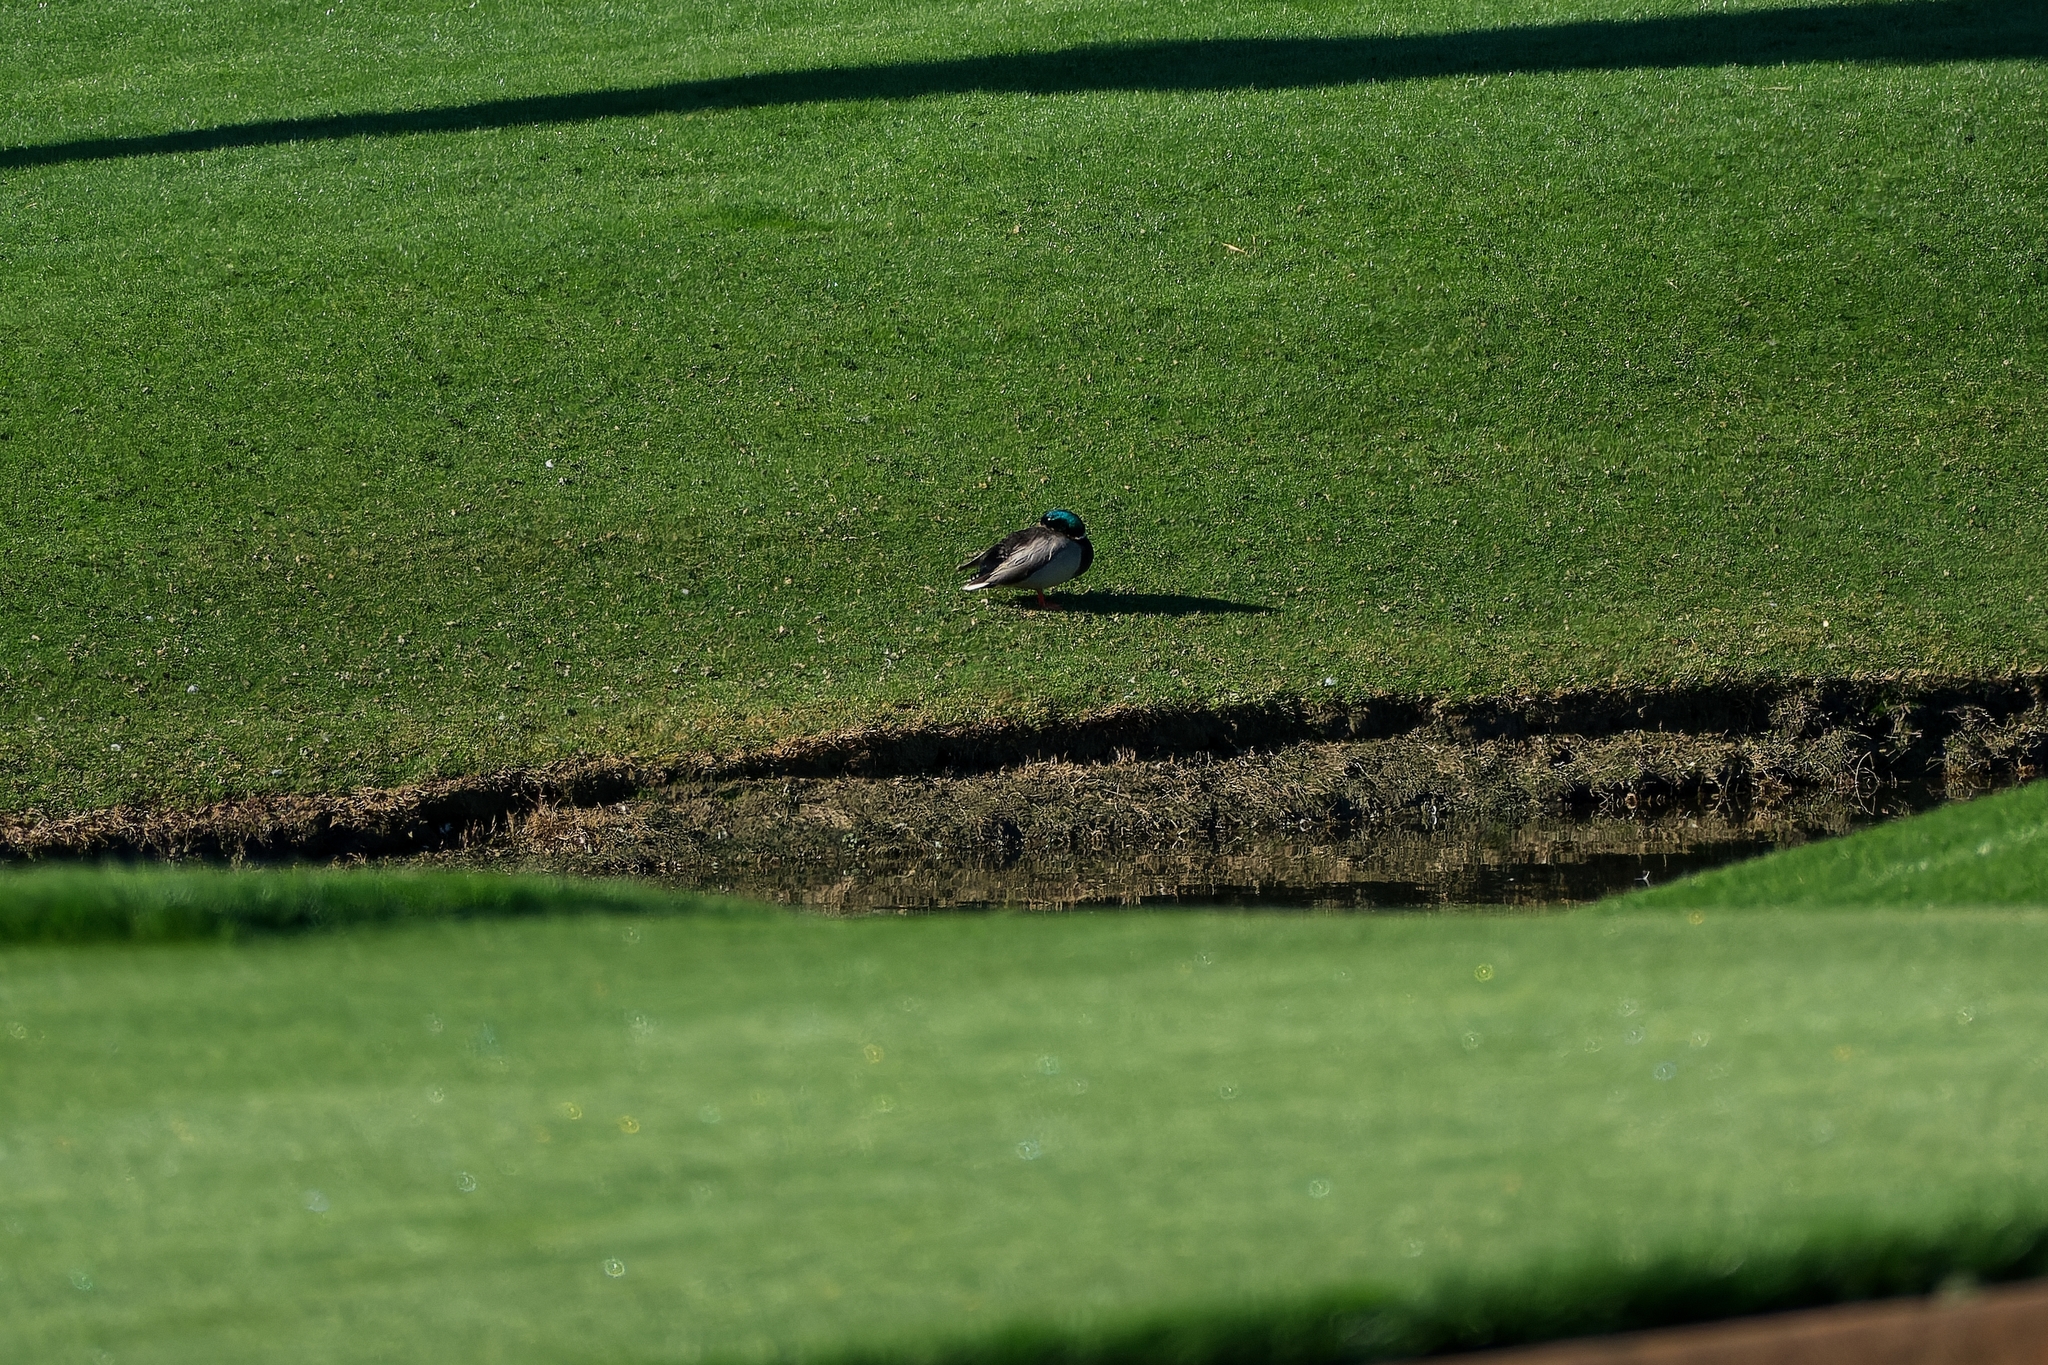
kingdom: Animalia
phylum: Chordata
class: Aves
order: Anseriformes
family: Anatidae
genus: Anas
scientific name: Anas platyrhynchos
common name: Mallard
